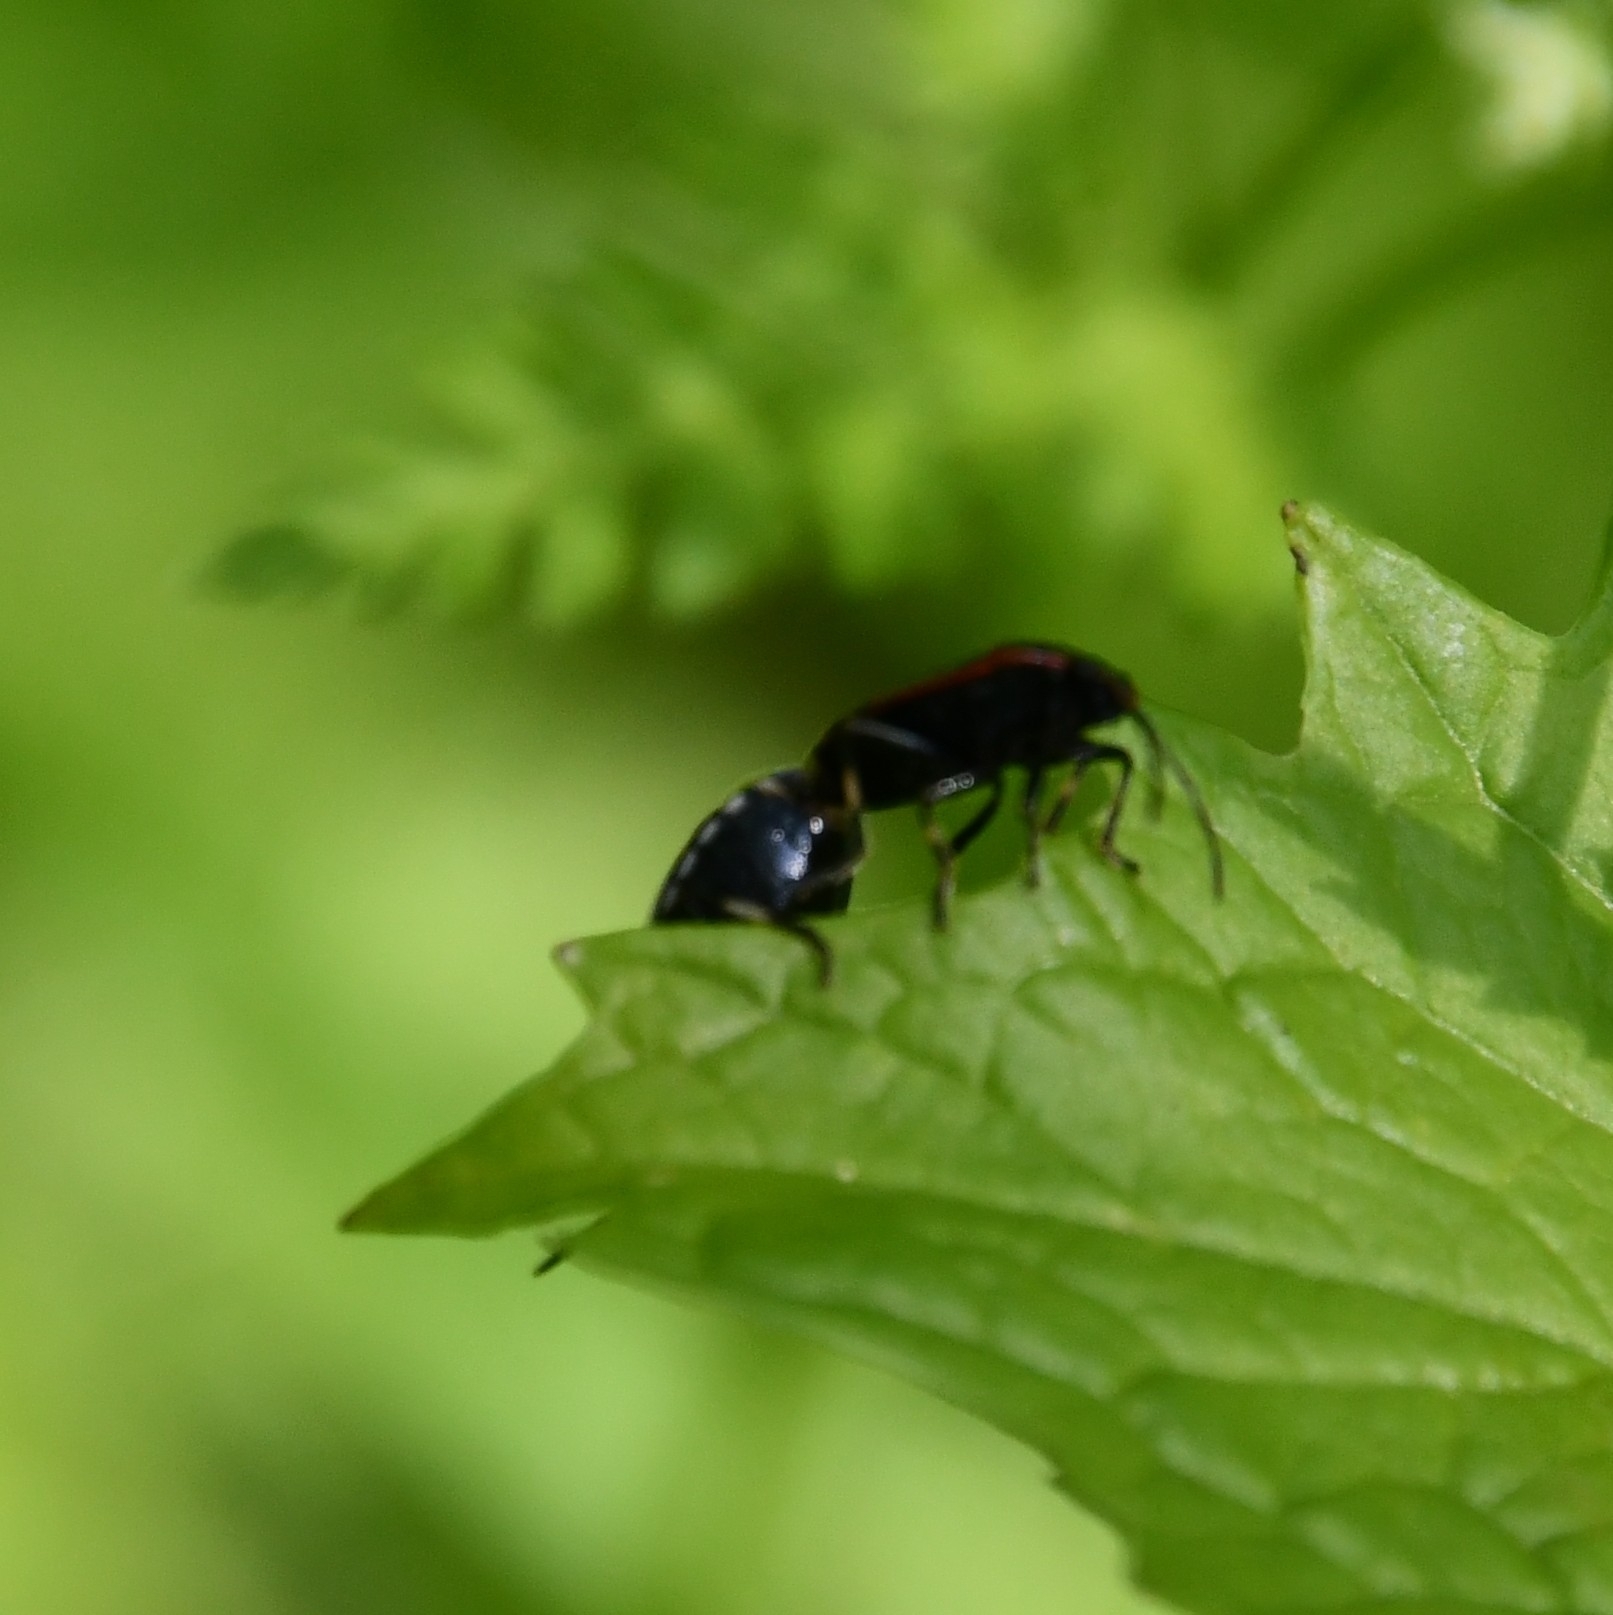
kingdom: Animalia
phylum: Arthropoda
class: Insecta
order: Hemiptera
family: Pentatomidae
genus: Eurydema
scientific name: Eurydema oleracea
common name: Cabbage bug
